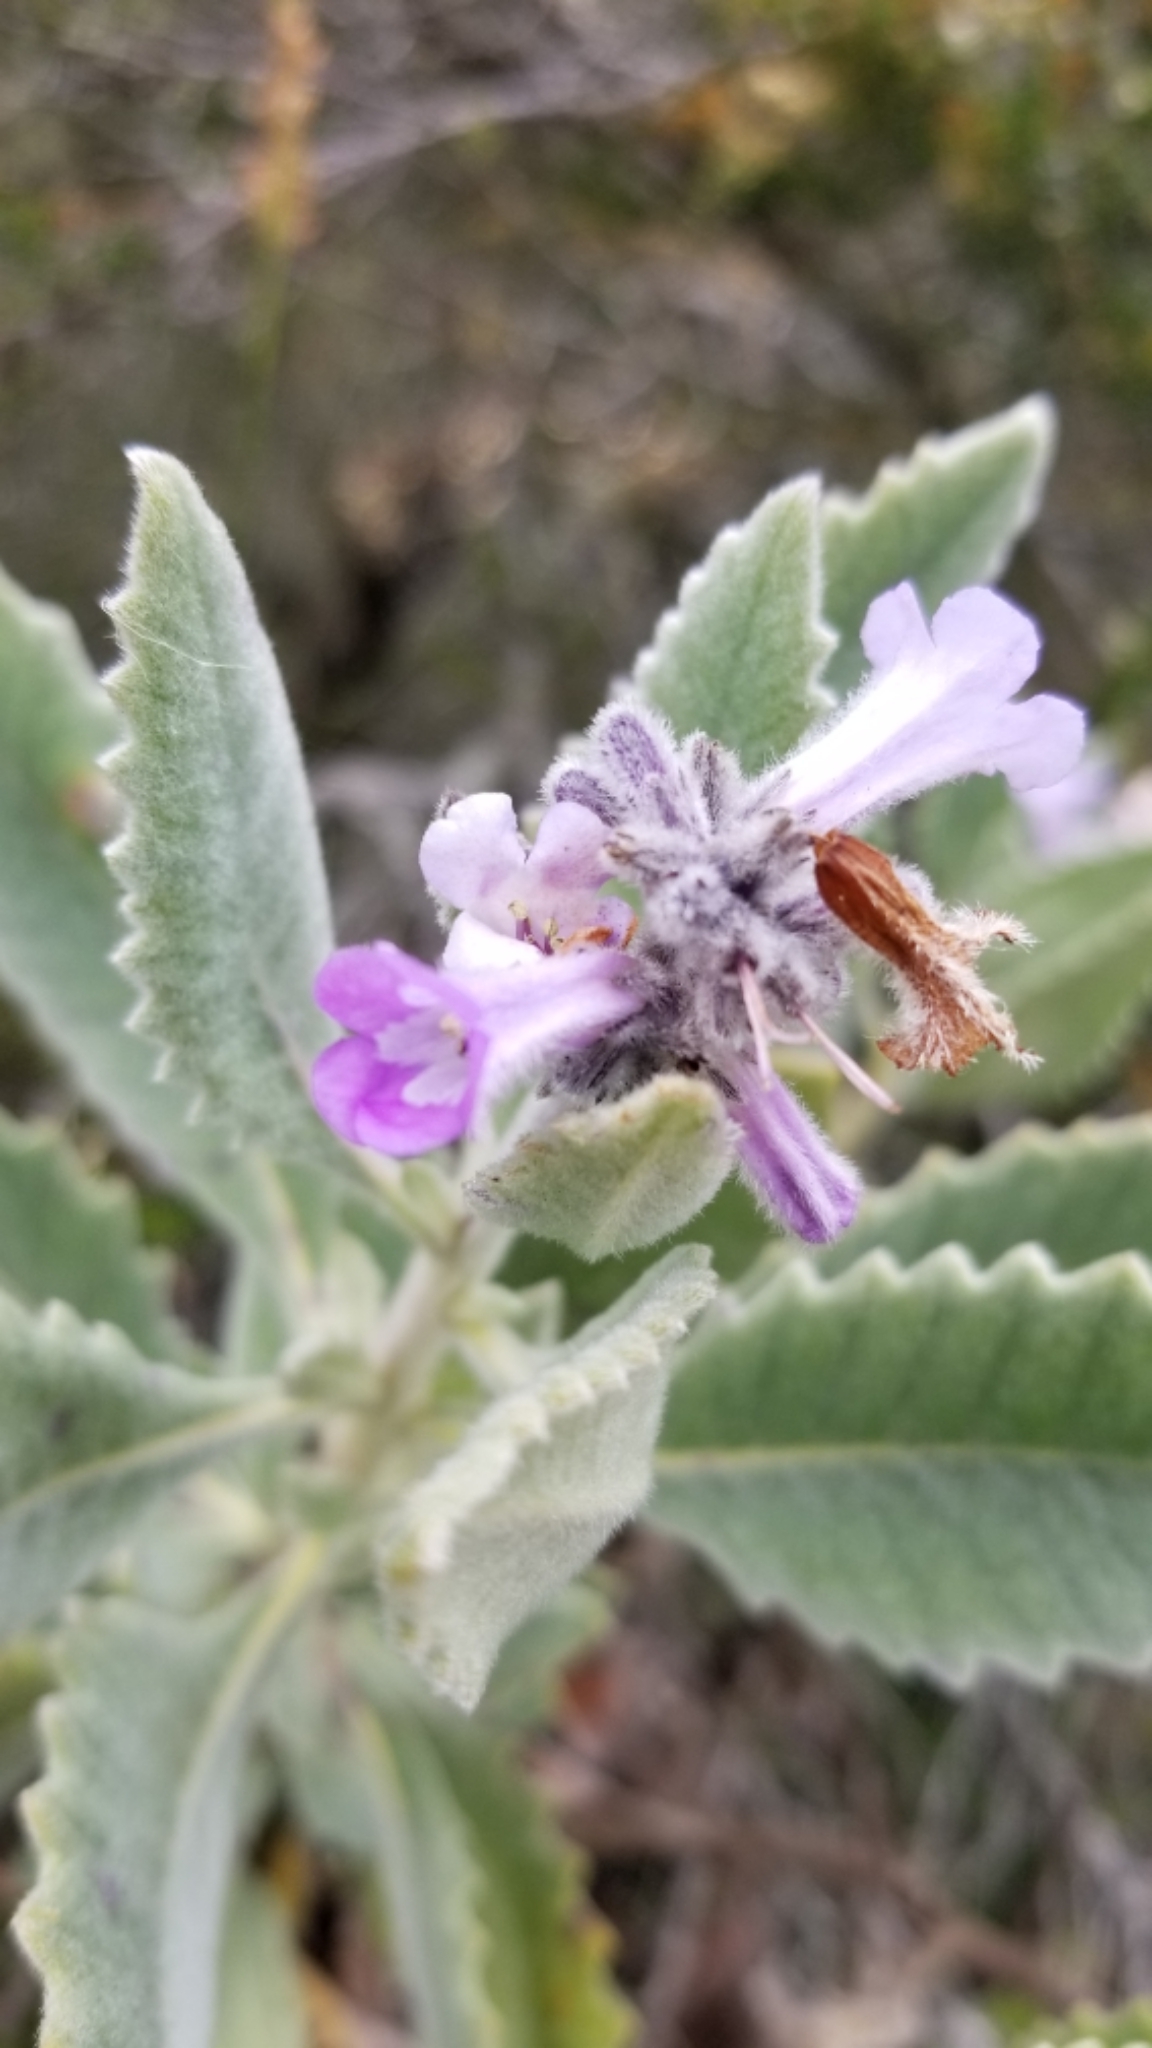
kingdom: Plantae
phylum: Tracheophyta
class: Magnoliopsida
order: Boraginales
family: Namaceae
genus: Eriodictyon
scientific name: Eriodictyon crassifolium
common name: Thick-leaf yerba-santa
